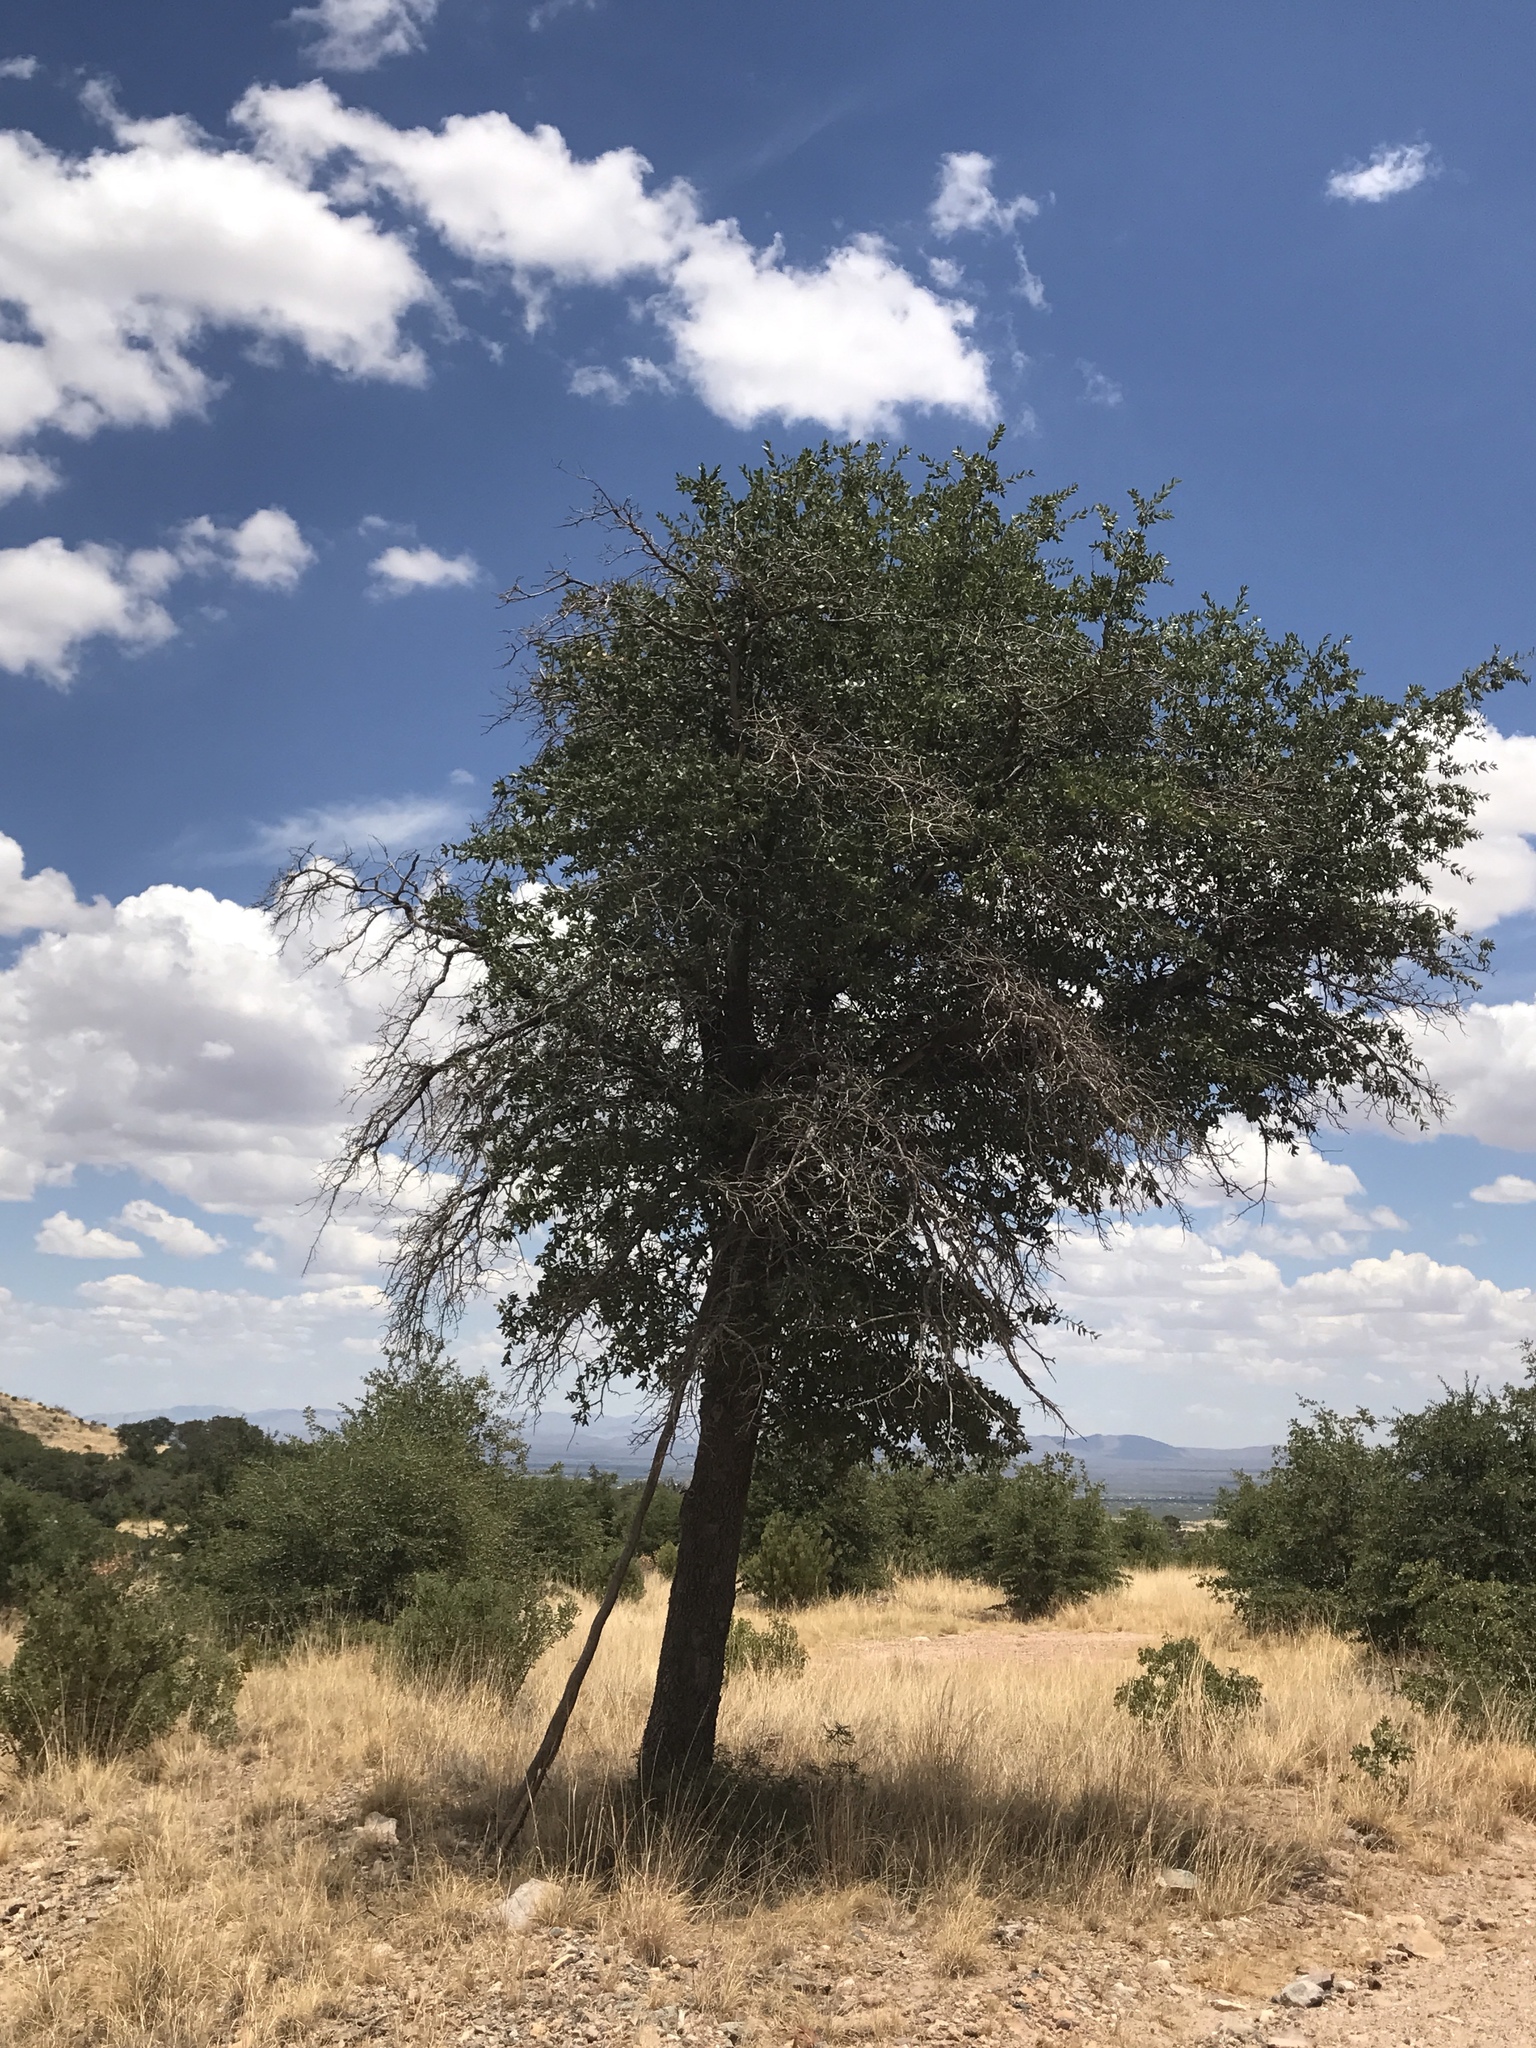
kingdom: Plantae
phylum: Tracheophyta
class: Magnoliopsida
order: Fagales
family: Fagaceae
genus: Quercus
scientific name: Quercus emoryi
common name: Emory oak
